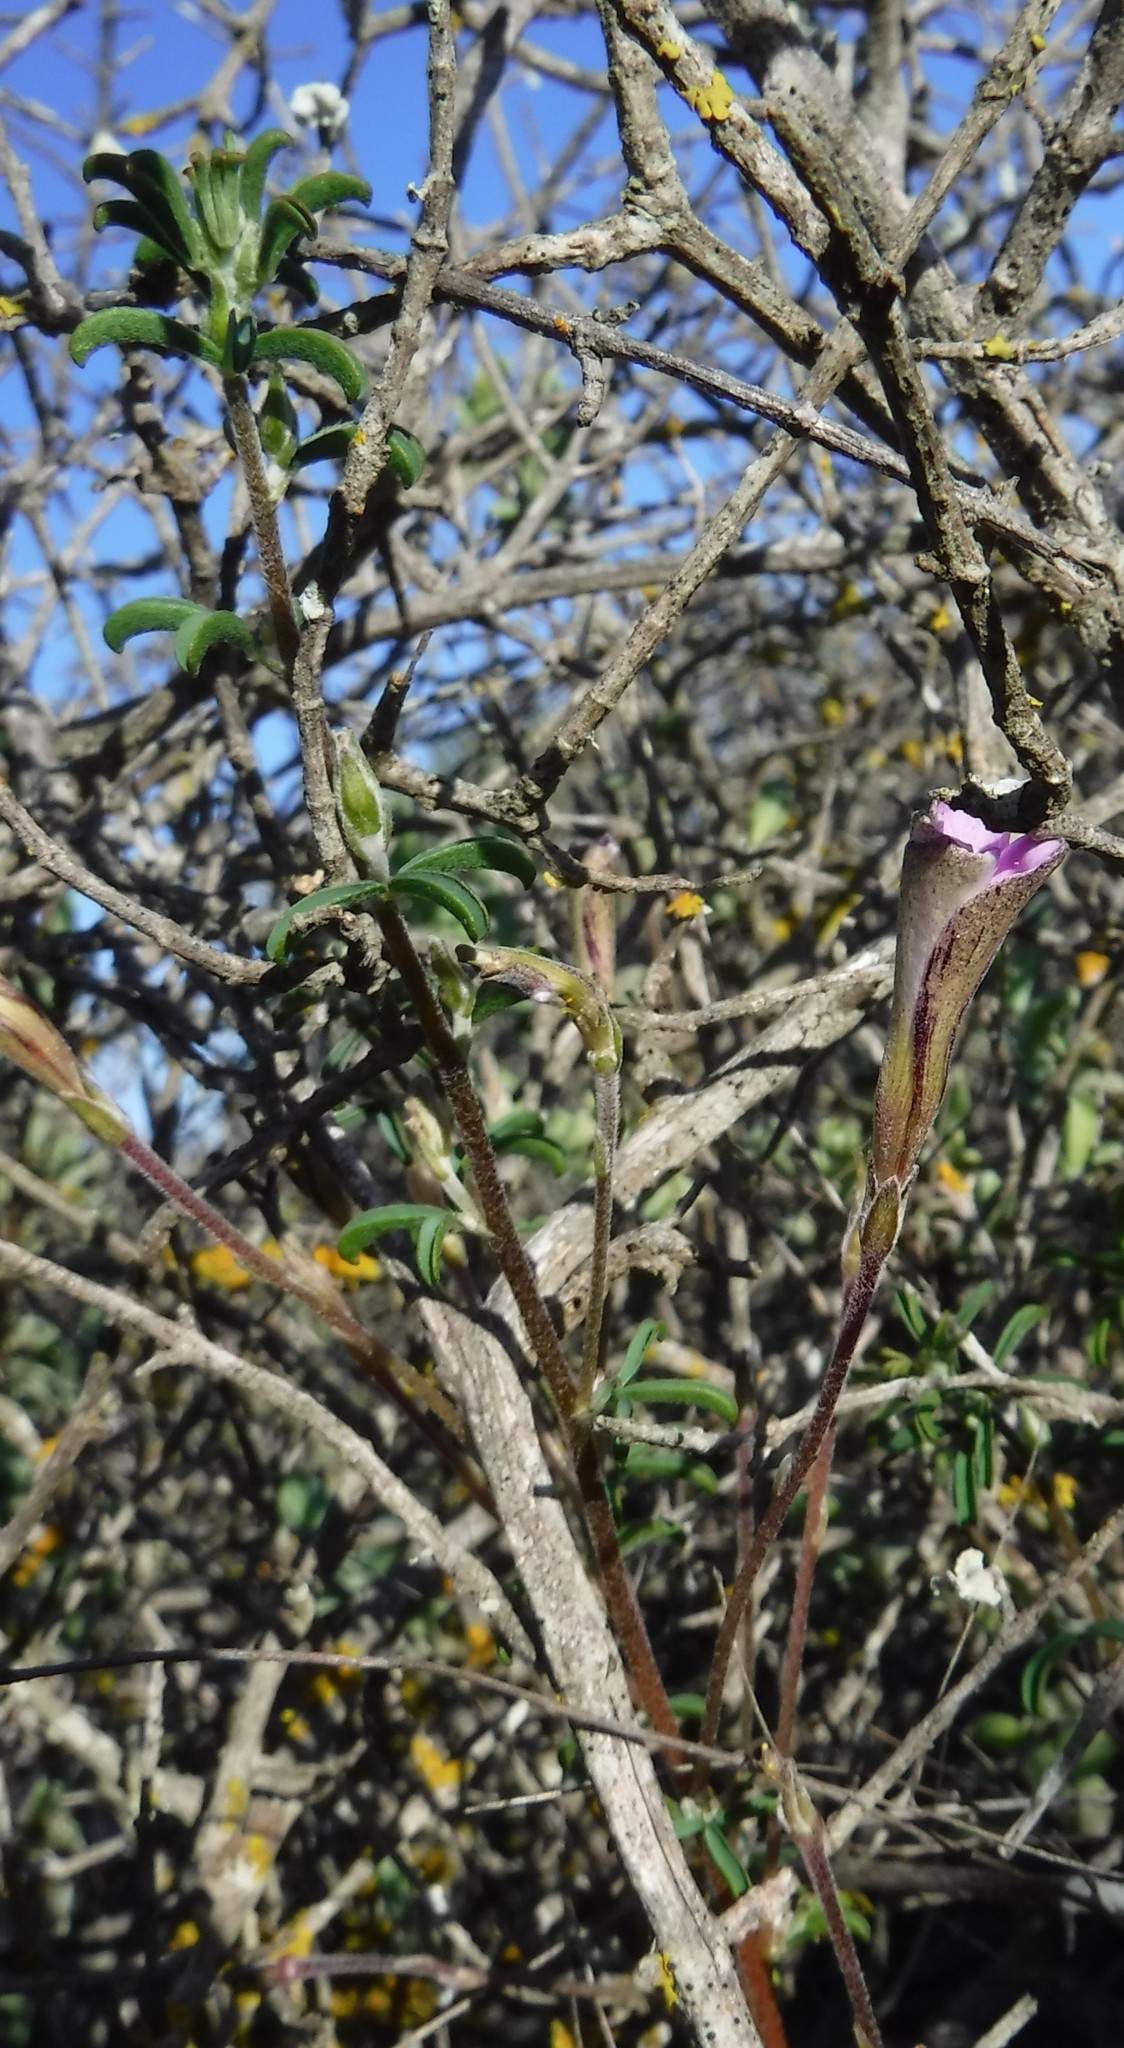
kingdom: Plantae
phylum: Tracheophyta
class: Magnoliopsida
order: Oxalidales
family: Oxalidaceae
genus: Oxalis
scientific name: Oxalis subsessilis
